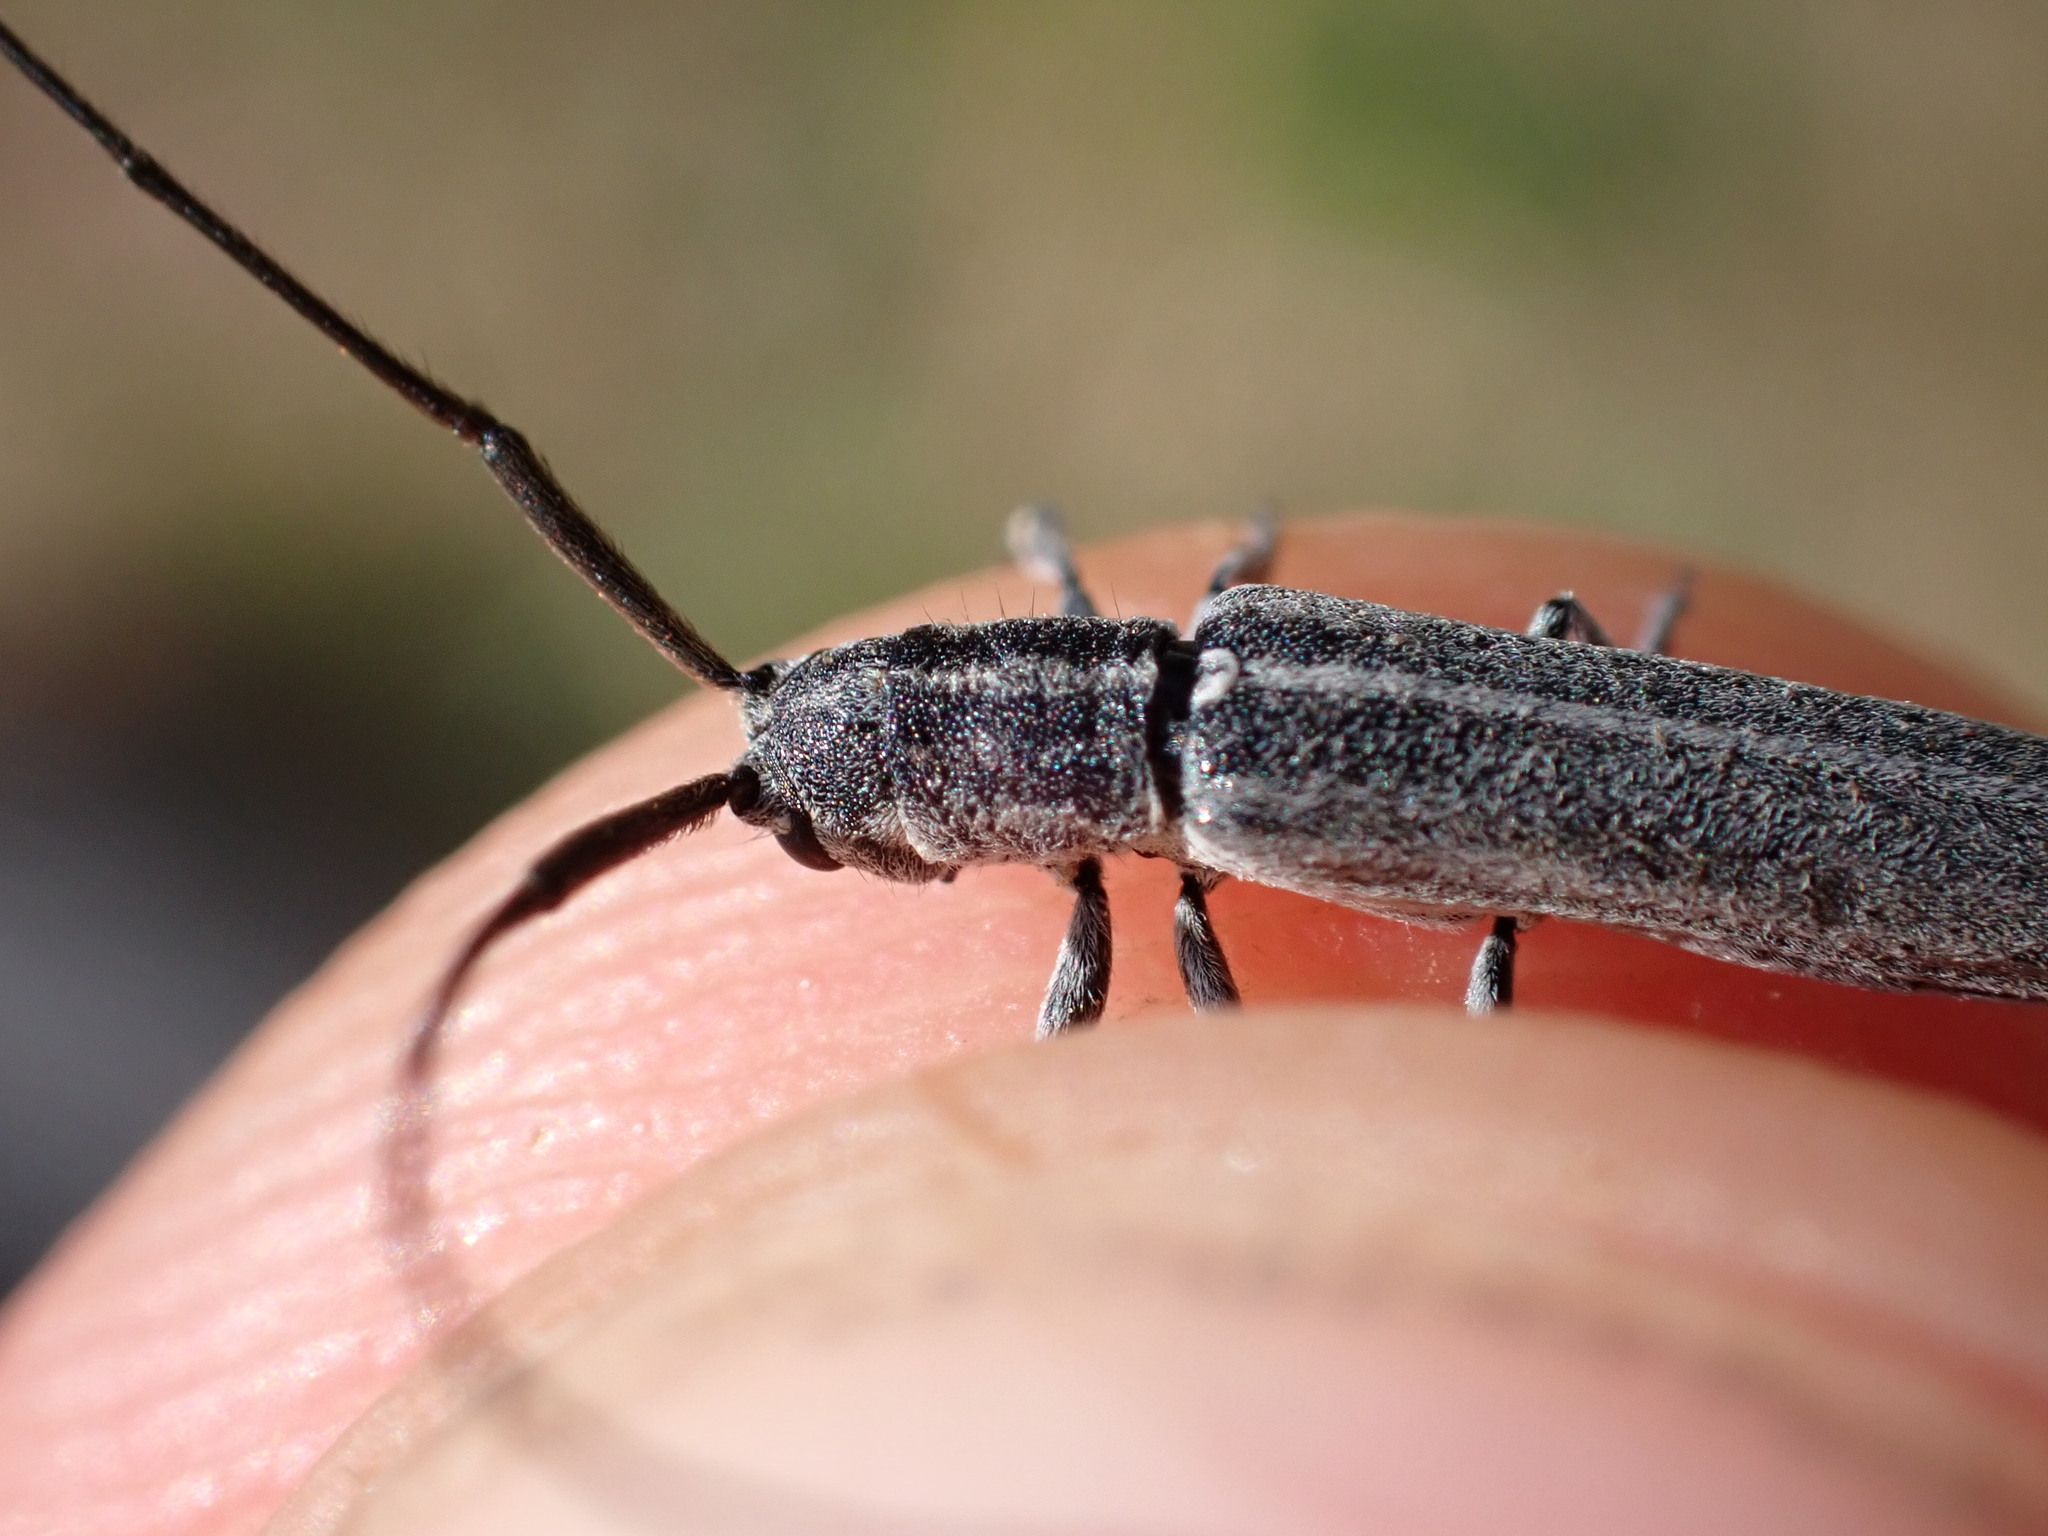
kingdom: Animalia
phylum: Arthropoda
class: Insecta
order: Coleoptera
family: Cerambycidae
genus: Calamobius
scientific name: Calamobius filum
